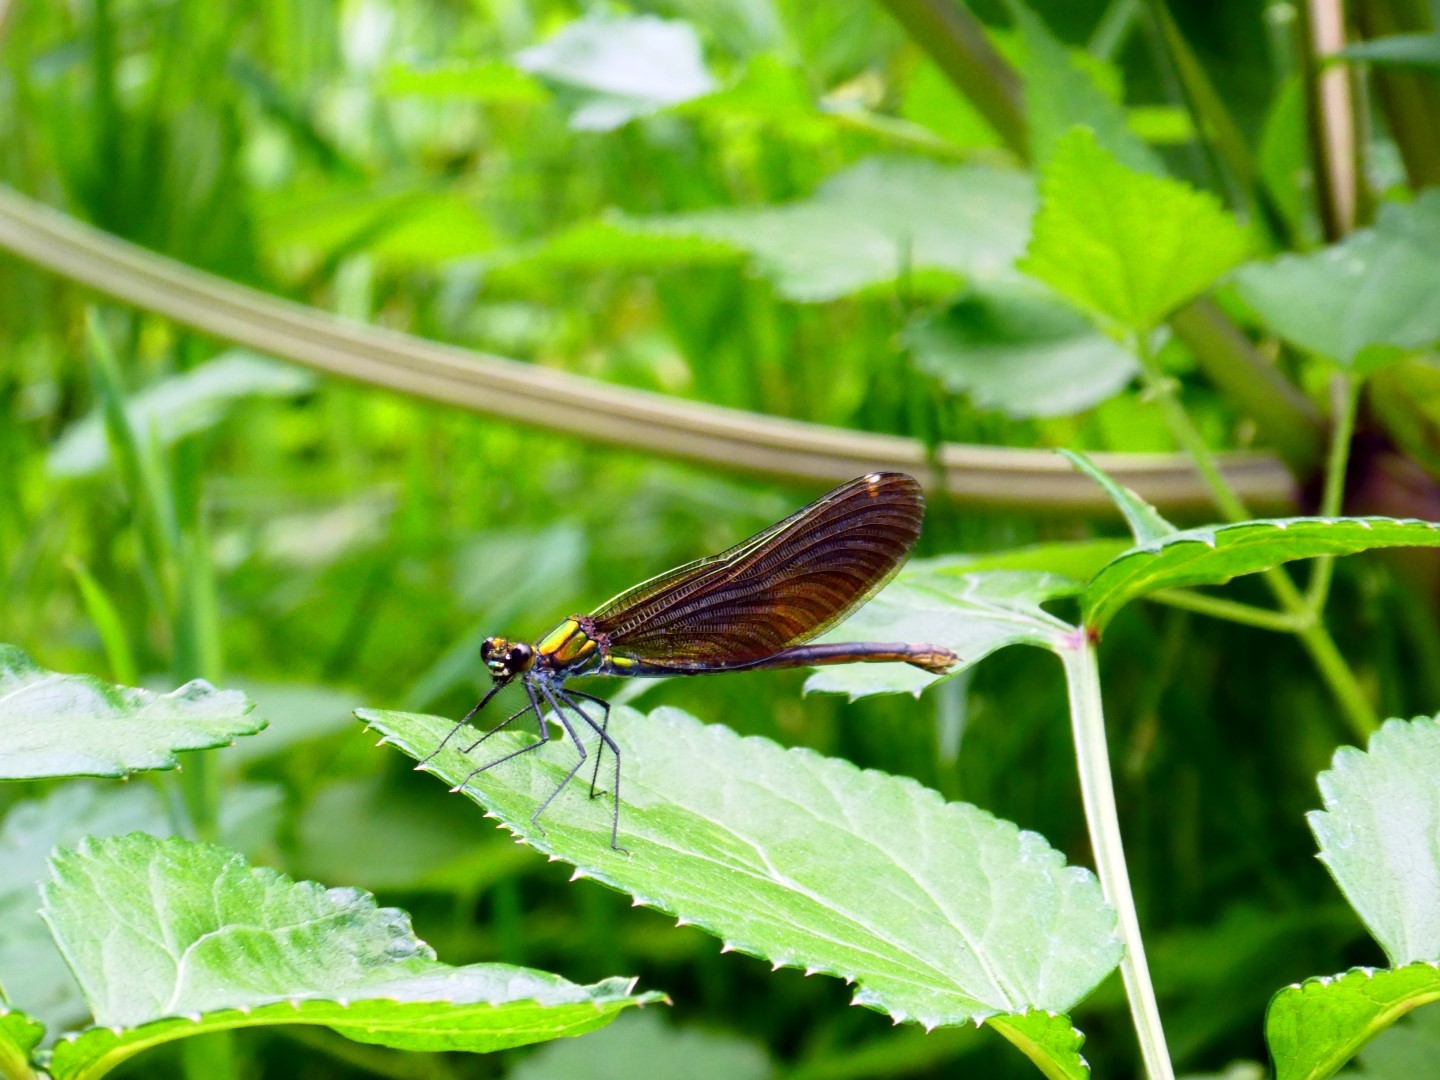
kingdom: Animalia
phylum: Arthropoda
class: Insecta
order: Odonata
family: Calopterygidae
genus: Calopteryx
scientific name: Calopteryx virgo
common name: Beautiful demoiselle
